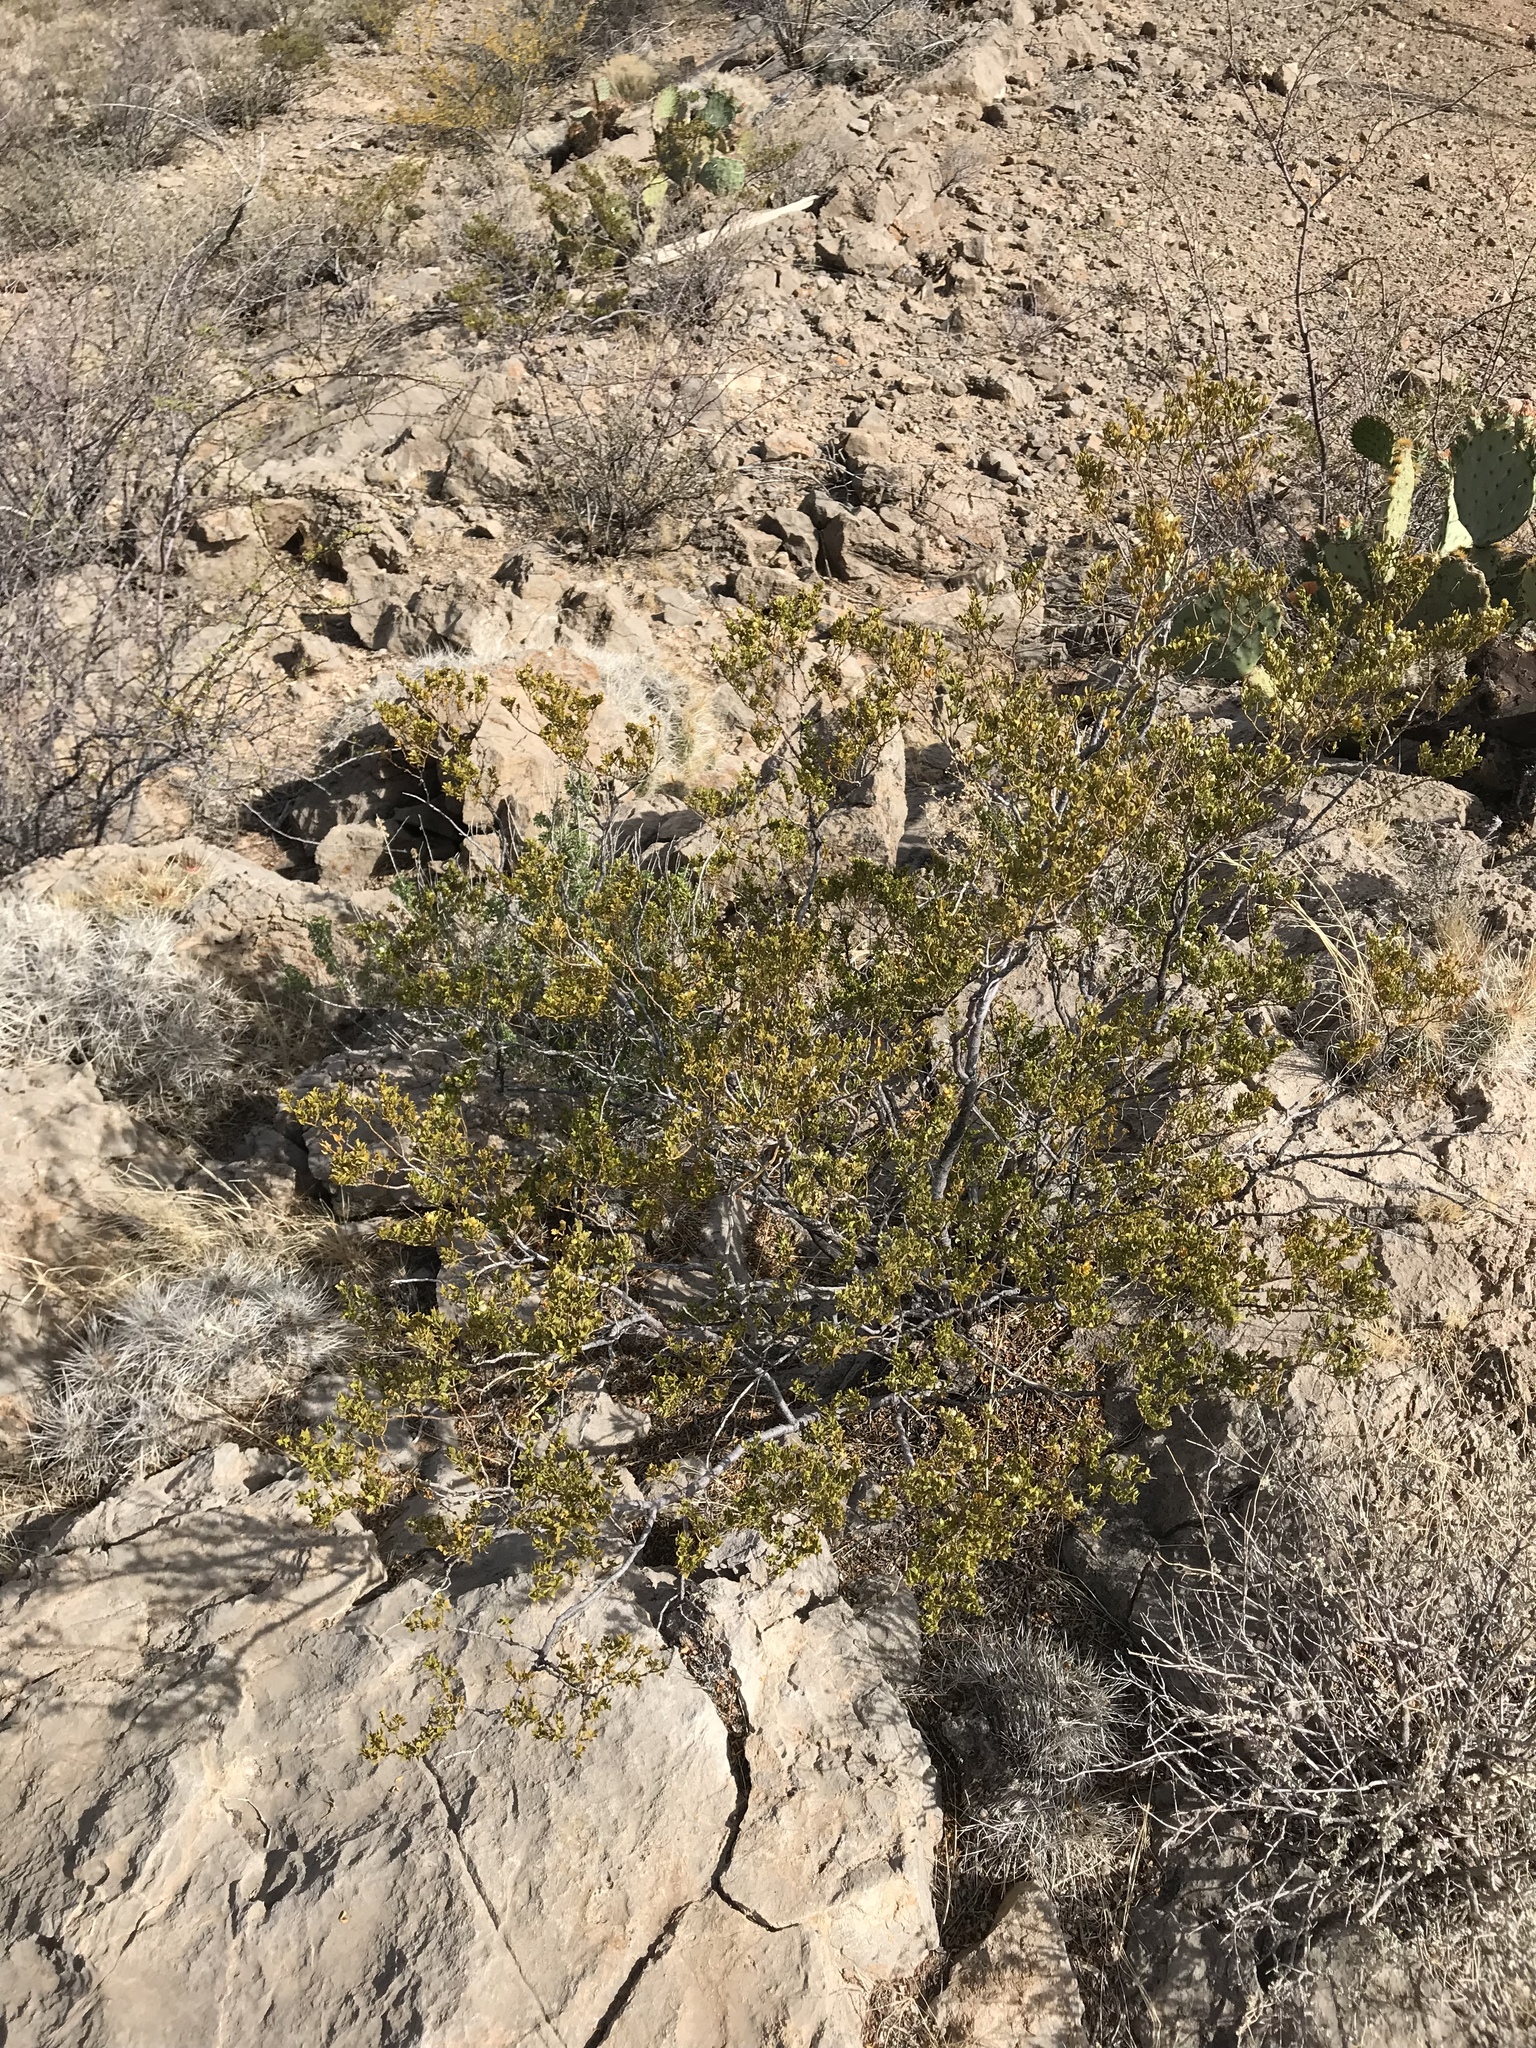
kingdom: Plantae
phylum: Tracheophyta
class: Magnoliopsida
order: Zygophyllales
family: Zygophyllaceae
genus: Larrea
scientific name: Larrea tridentata
